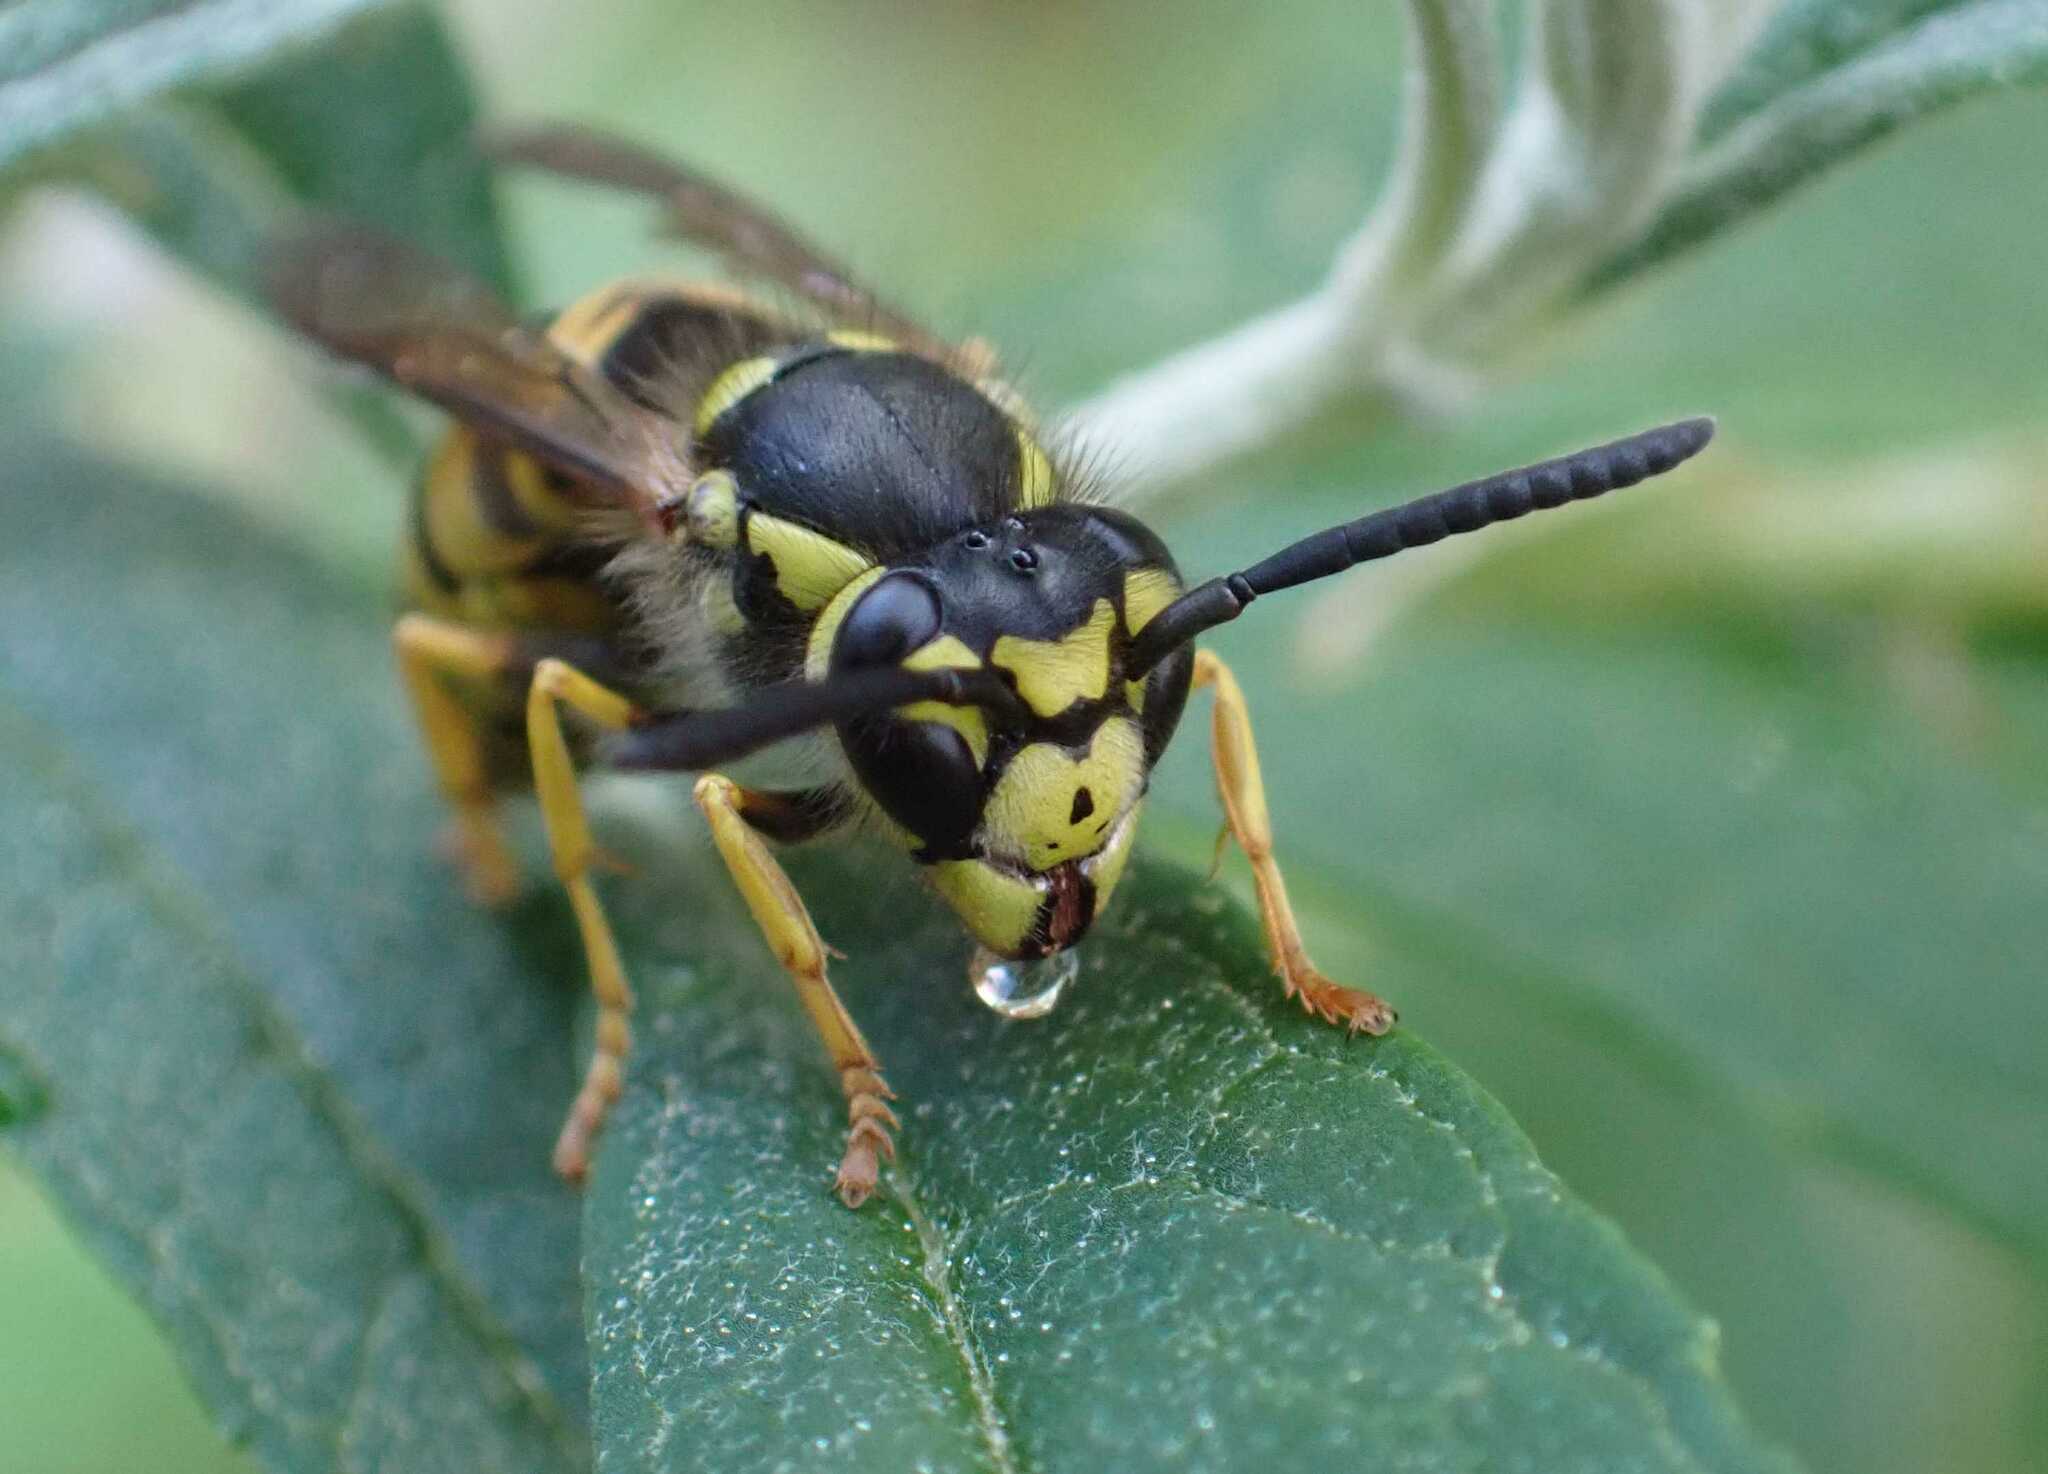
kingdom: Animalia
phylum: Arthropoda
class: Insecta
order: Hymenoptera
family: Vespidae
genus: Vespula
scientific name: Vespula germanica
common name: German wasp
